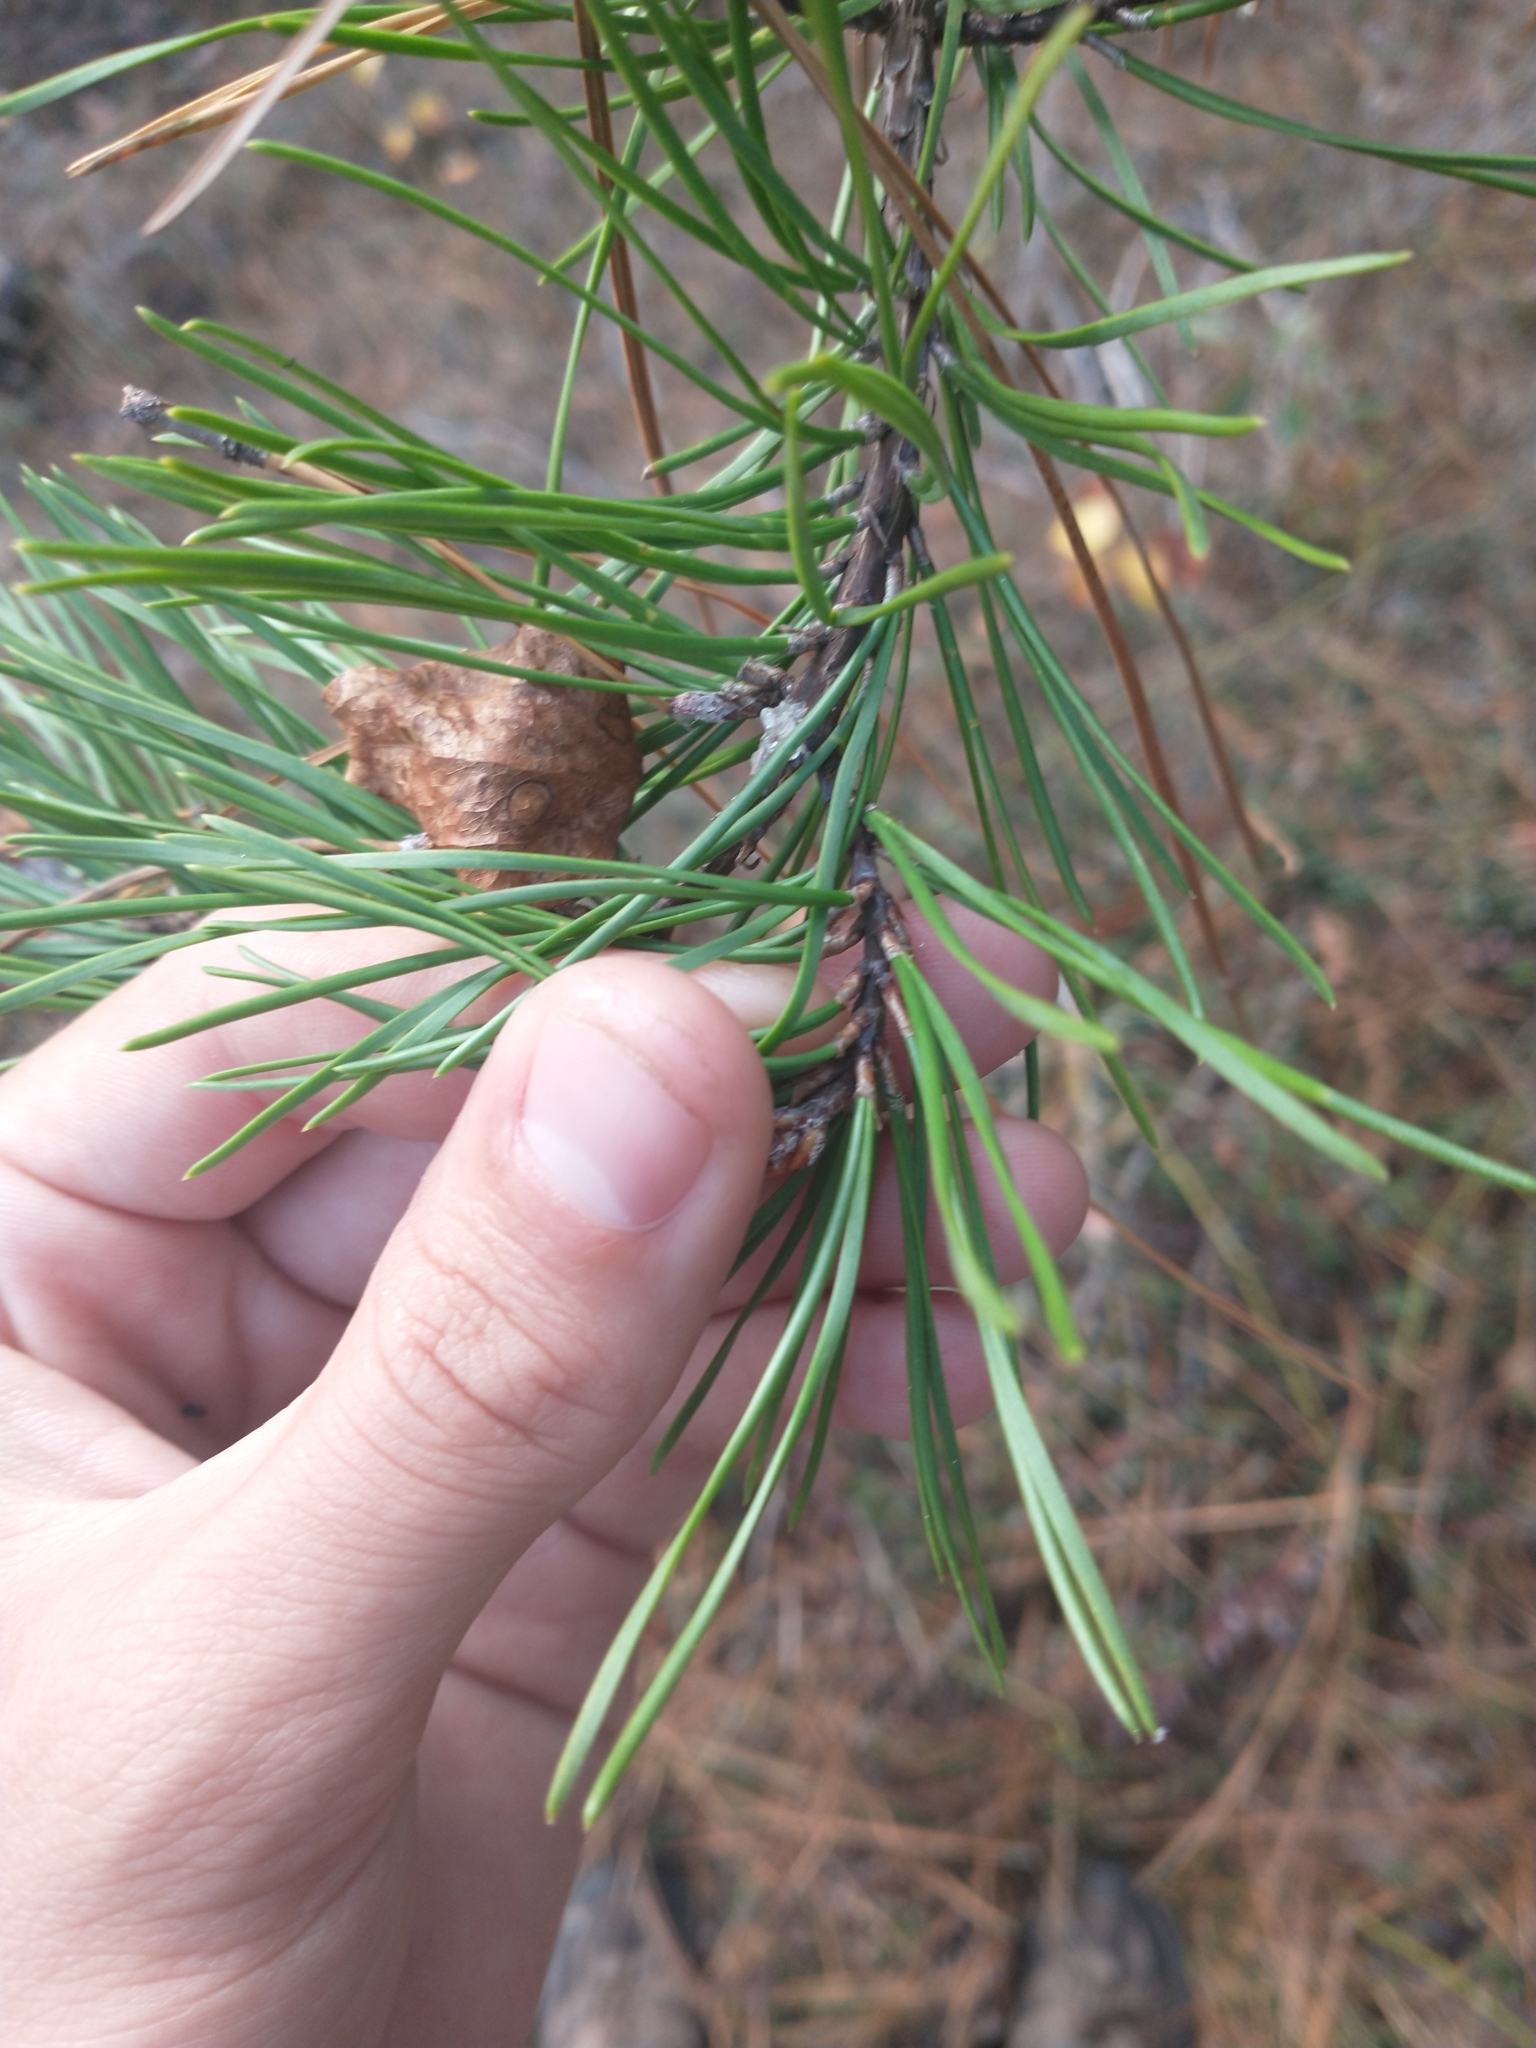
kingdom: Plantae
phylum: Tracheophyta
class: Pinopsida
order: Pinales
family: Pinaceae
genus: Pinus
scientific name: Pinus virginiana
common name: Scrub pine
